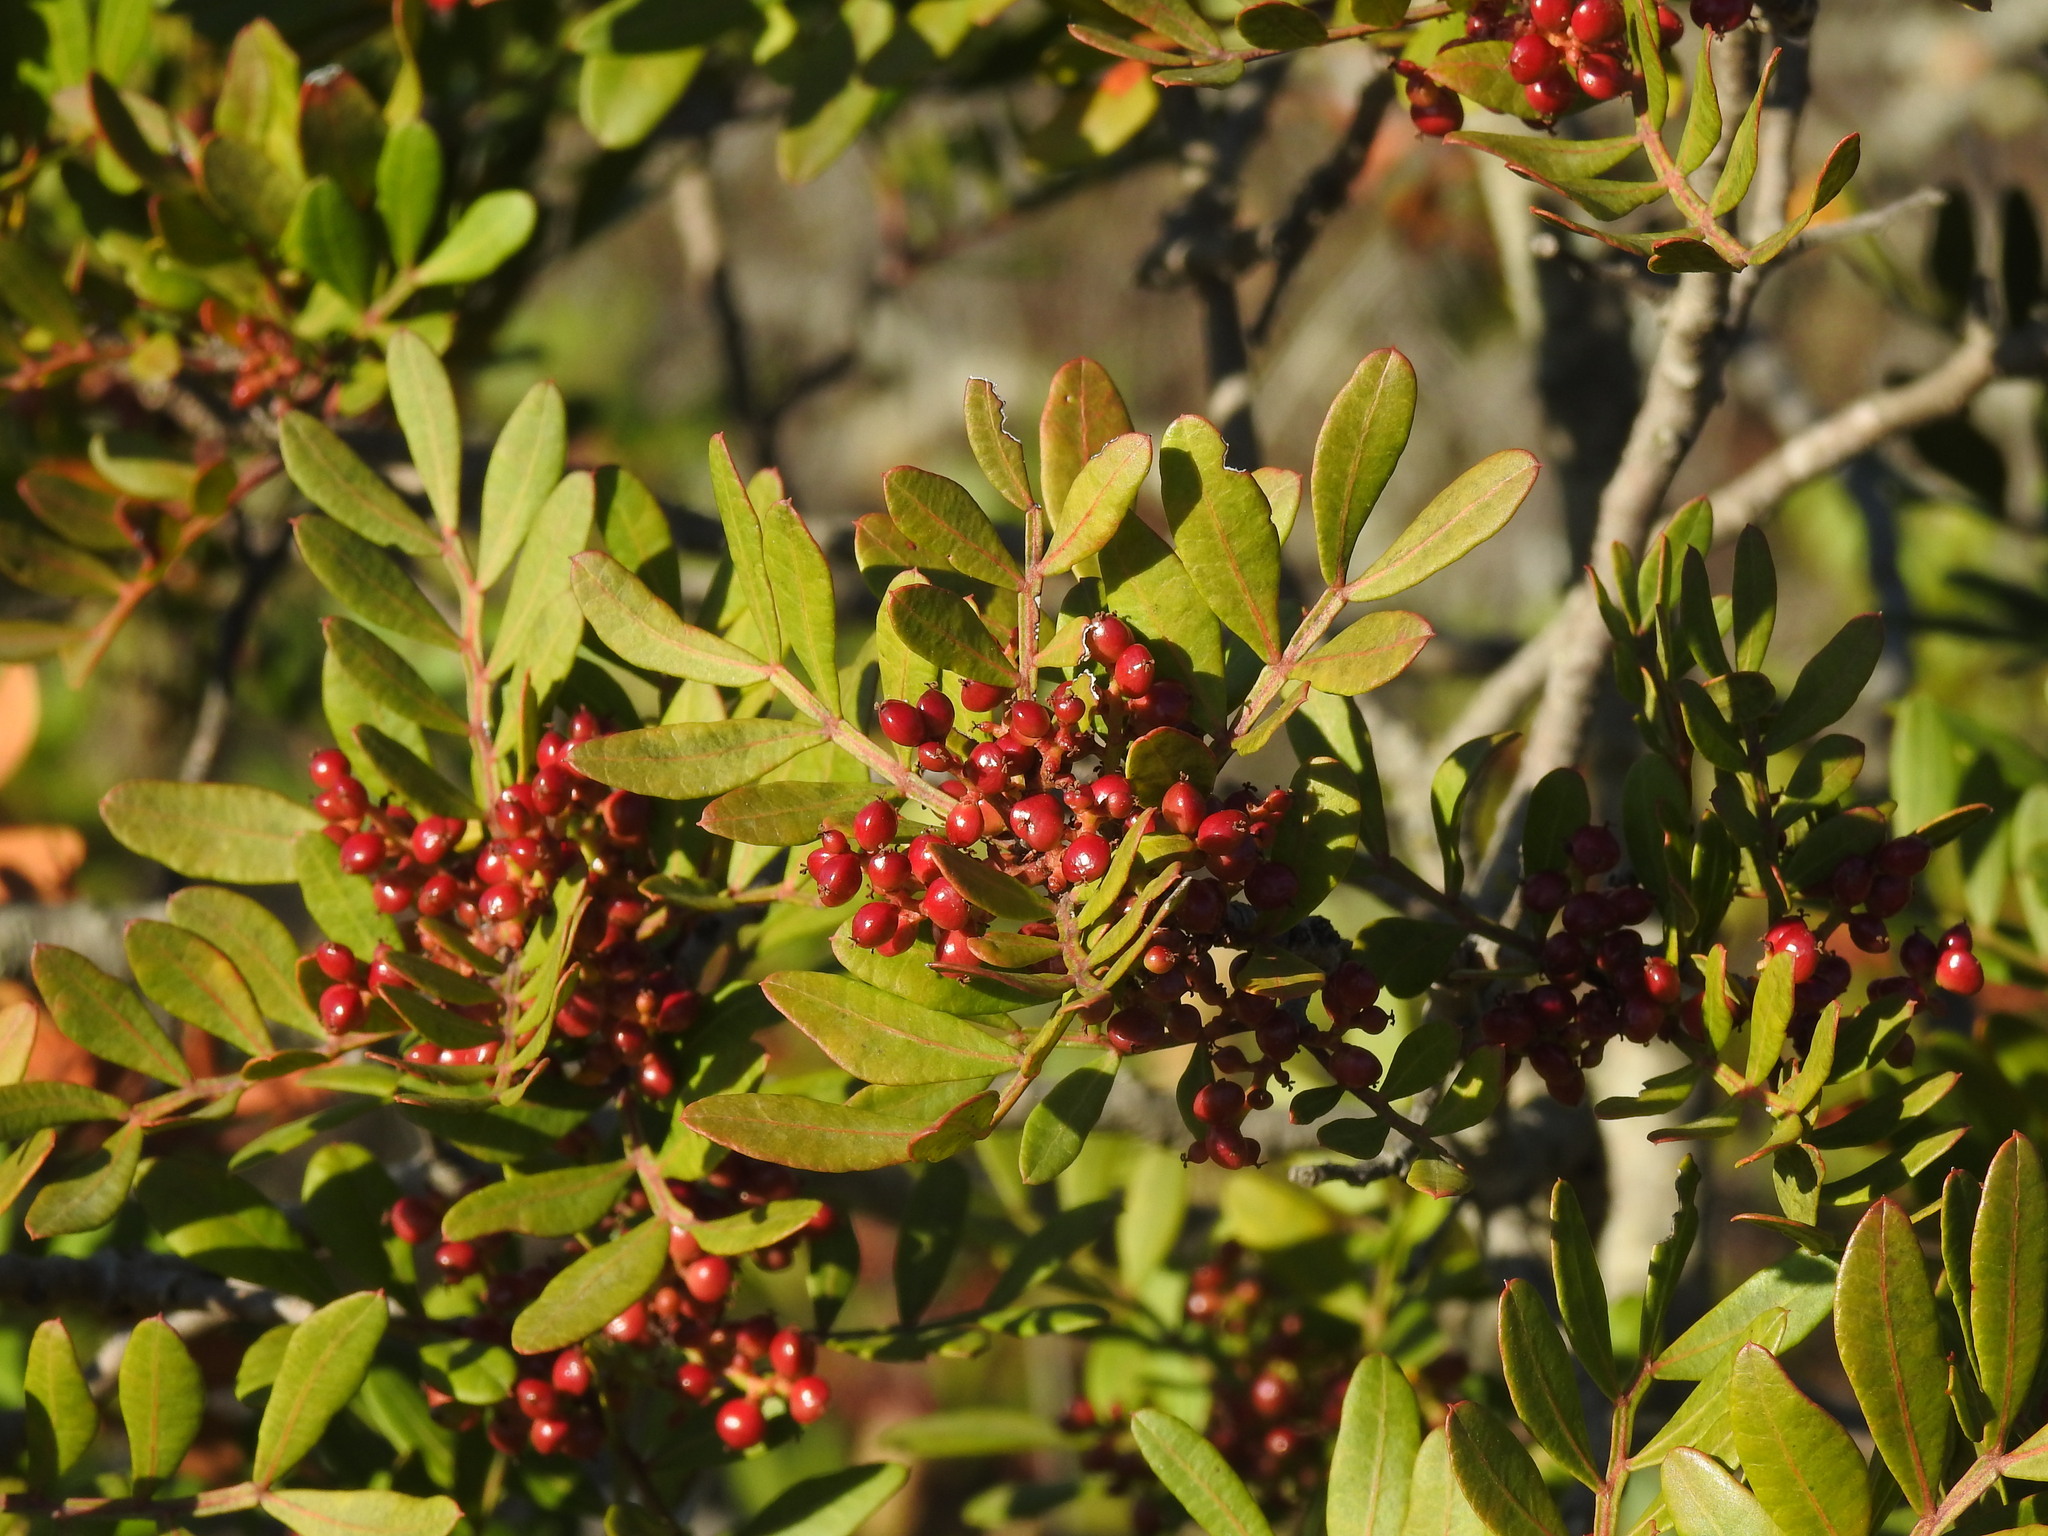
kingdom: Plantae
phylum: Tracheophyta
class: Magnoliopsida
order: Sapindales
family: Anacardiaceae
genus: Pistacia
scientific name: Pistacia lentiscus
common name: Lentisk
